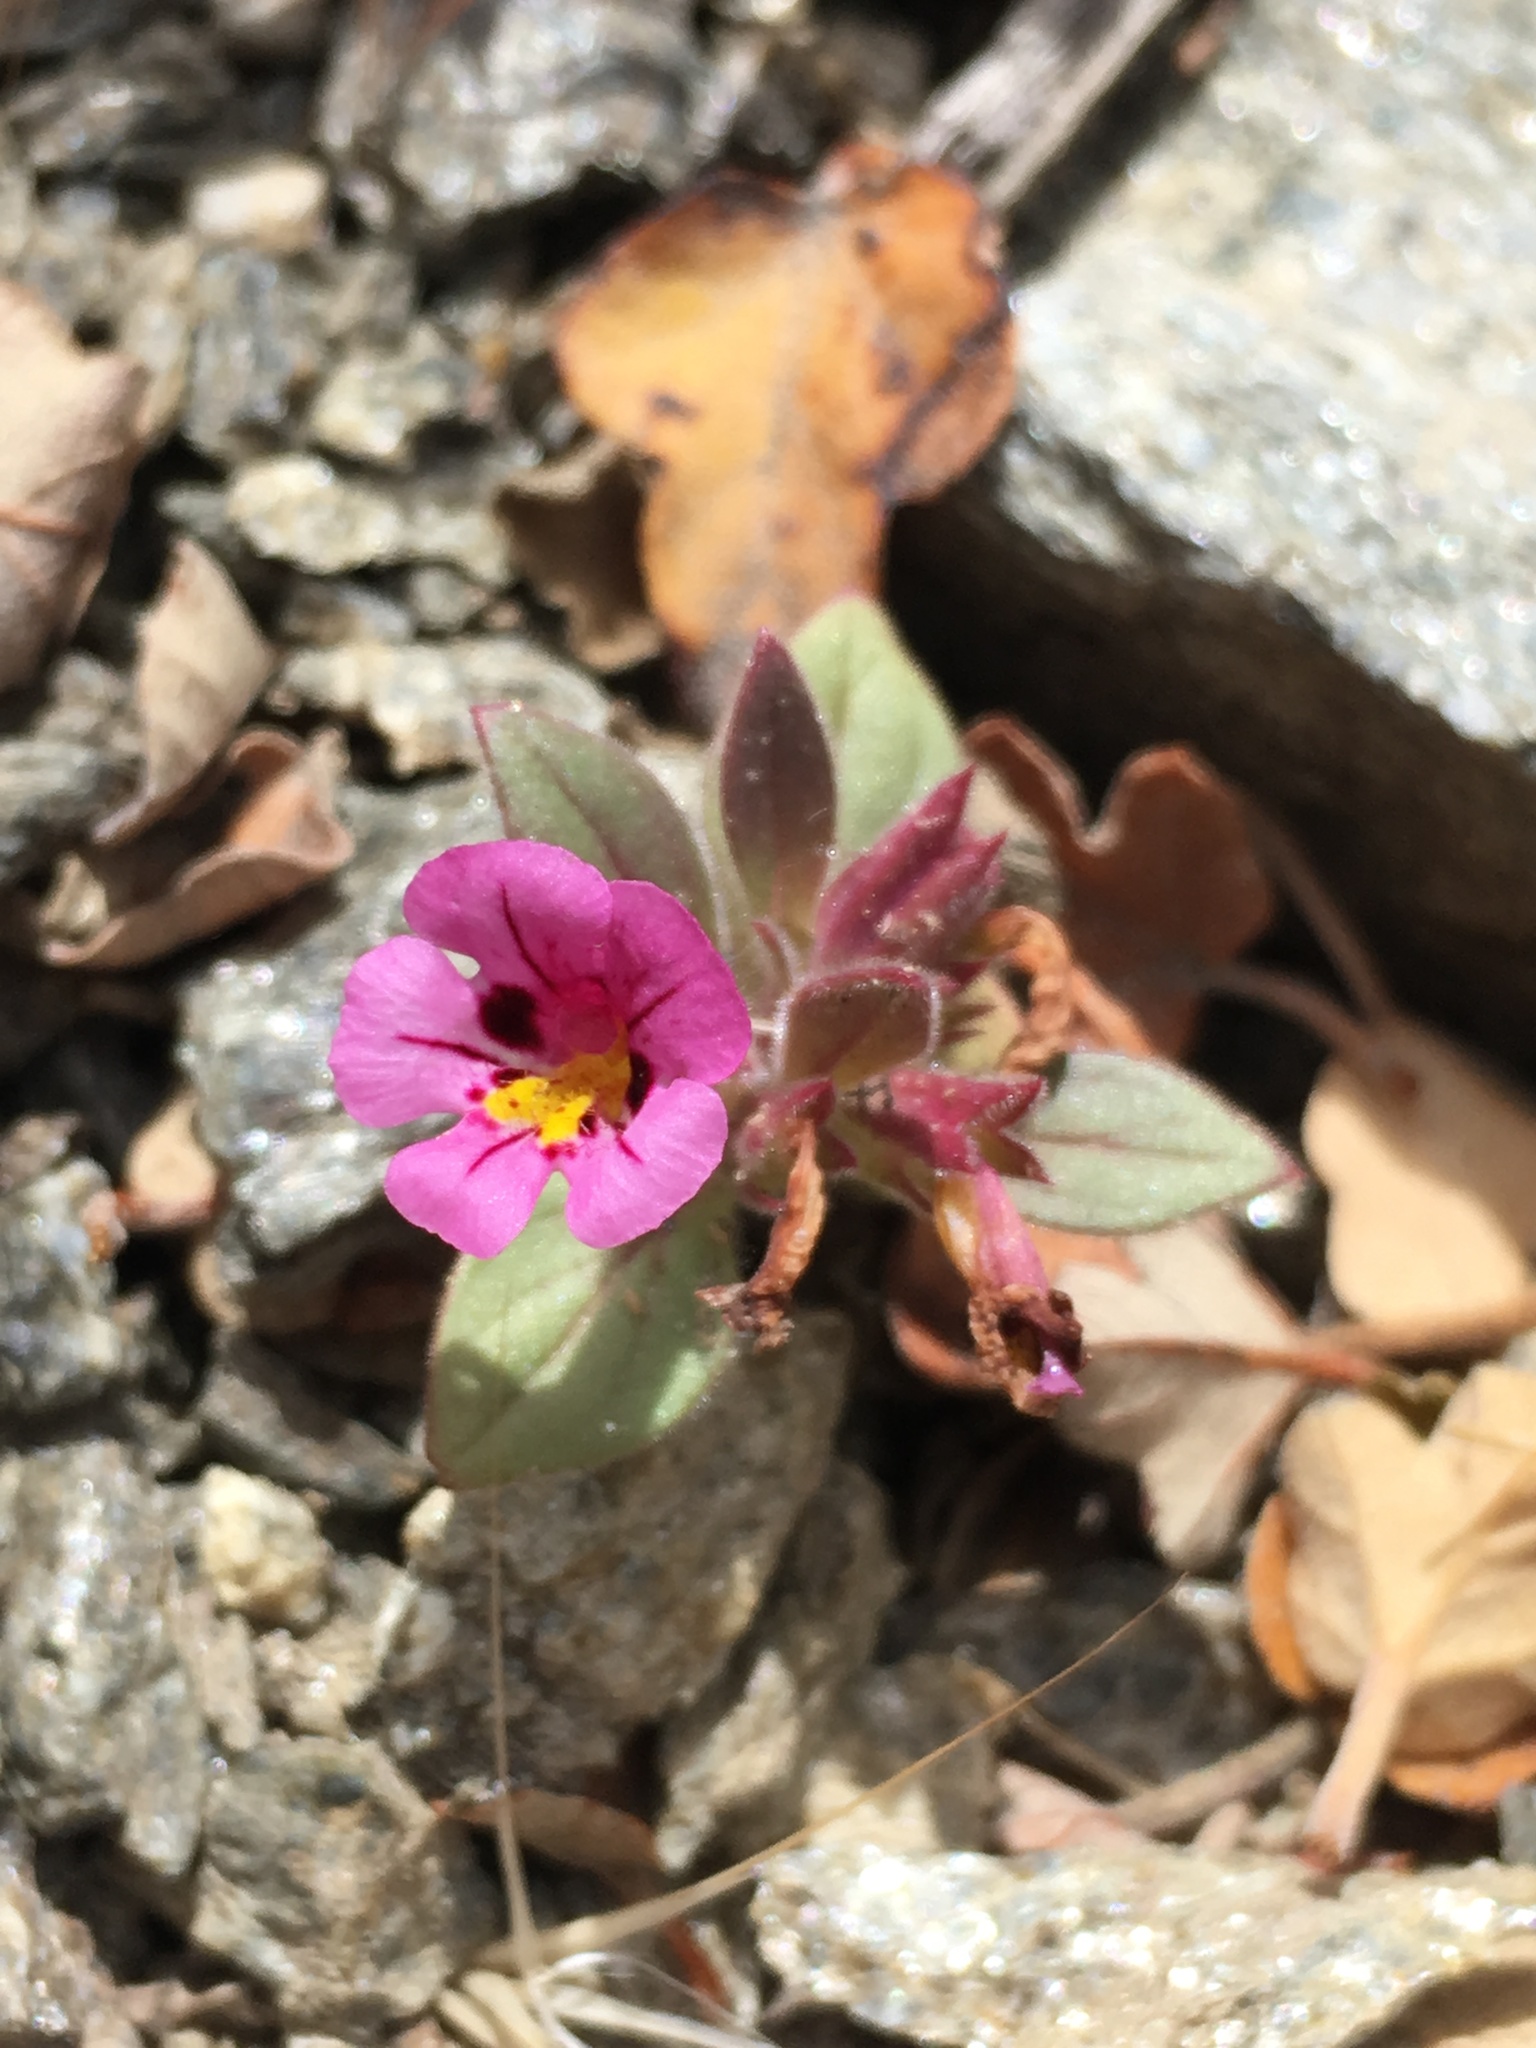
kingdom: Plantae
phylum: Tracheophyta
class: Magnoliopsida
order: Lamiales
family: Phrymaceae
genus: Diplacus
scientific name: Diplacus johnstonii
